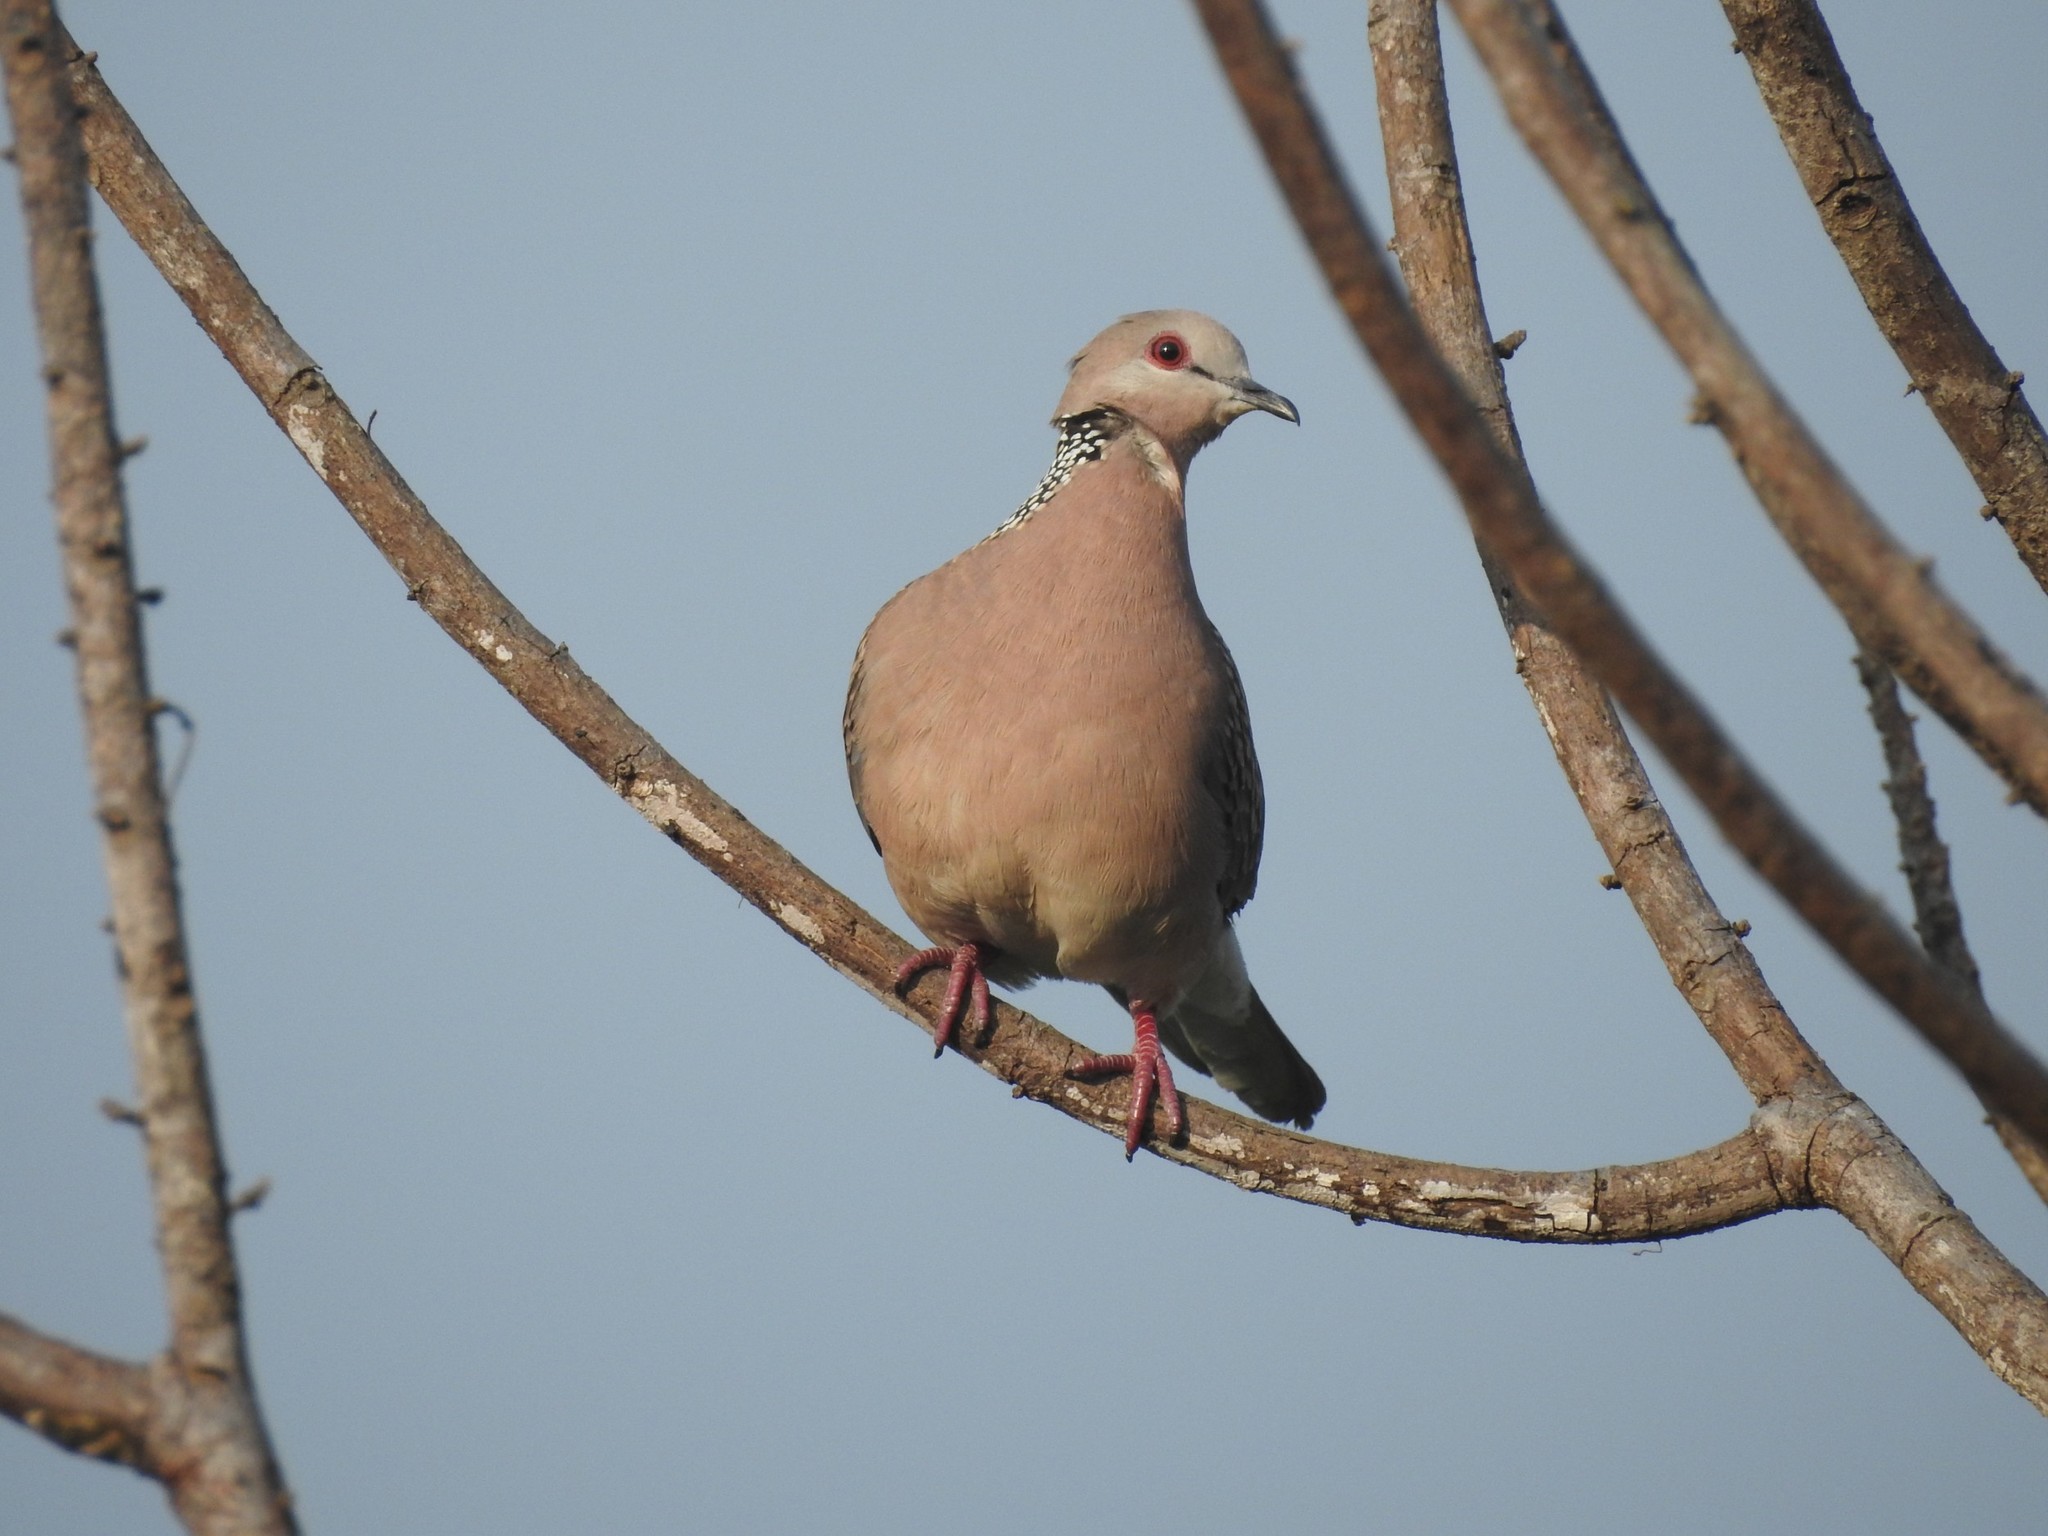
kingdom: Animalia
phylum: Chordata
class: Aves
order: Columbiformes
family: Columbidae
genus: Spilopelia
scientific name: Spilopelia chinensis
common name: Spotted dove
